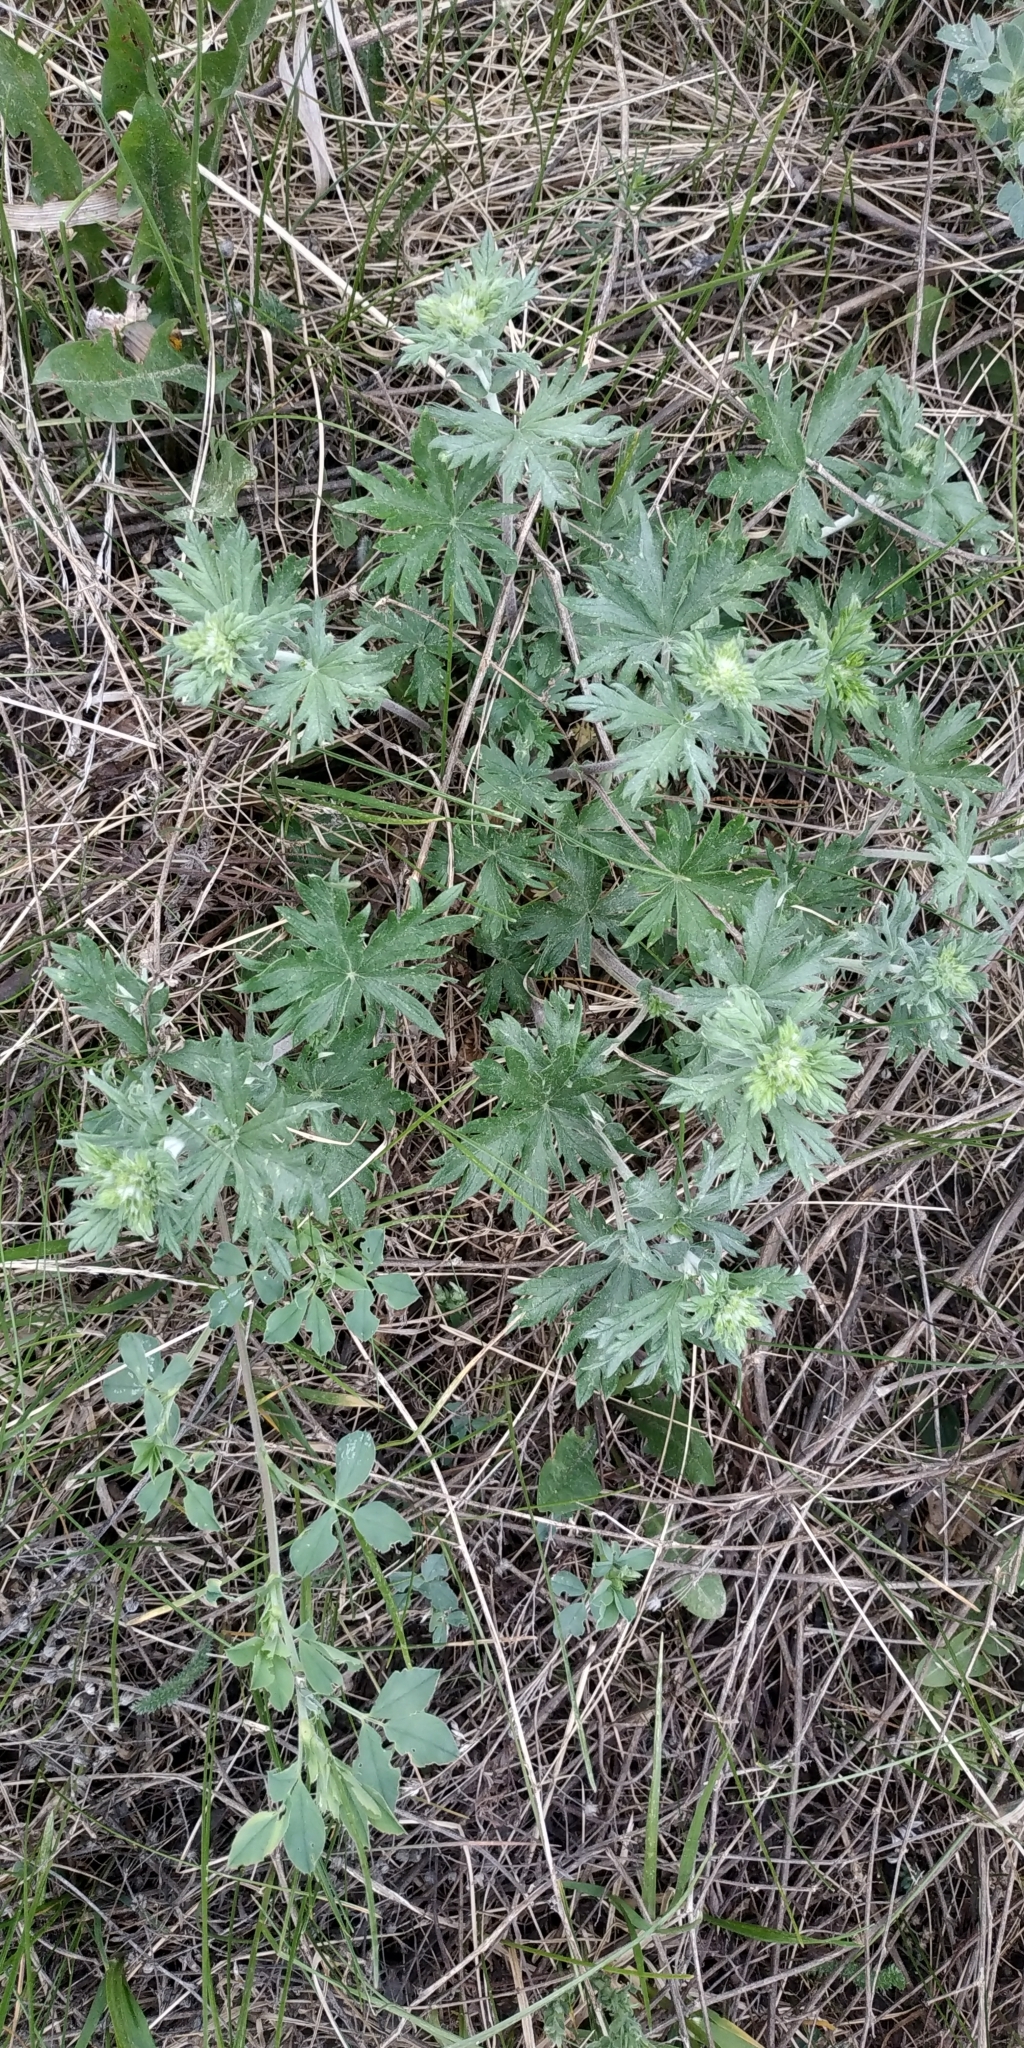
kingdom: Plantae
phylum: Tracheophyta
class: Magnoliopsida
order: Rosales
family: Rosaceae
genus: Potentilla
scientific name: Potentilla argentea
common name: Hoary cinquefoil
